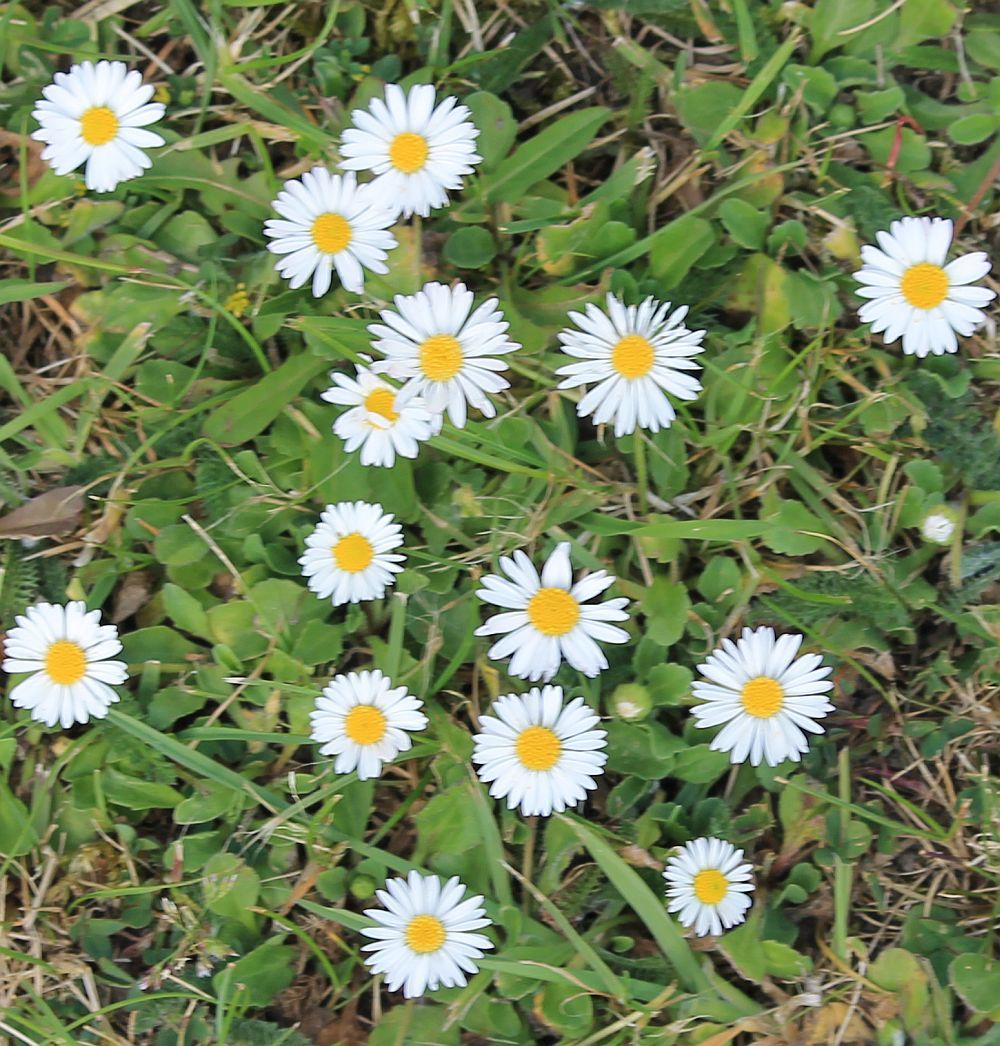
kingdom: Plantae
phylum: Tracheophyta
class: Magnoliopsida
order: Asterales
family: Asteraceae
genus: Bellis
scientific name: Bellis perennis
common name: Lawndaisy
